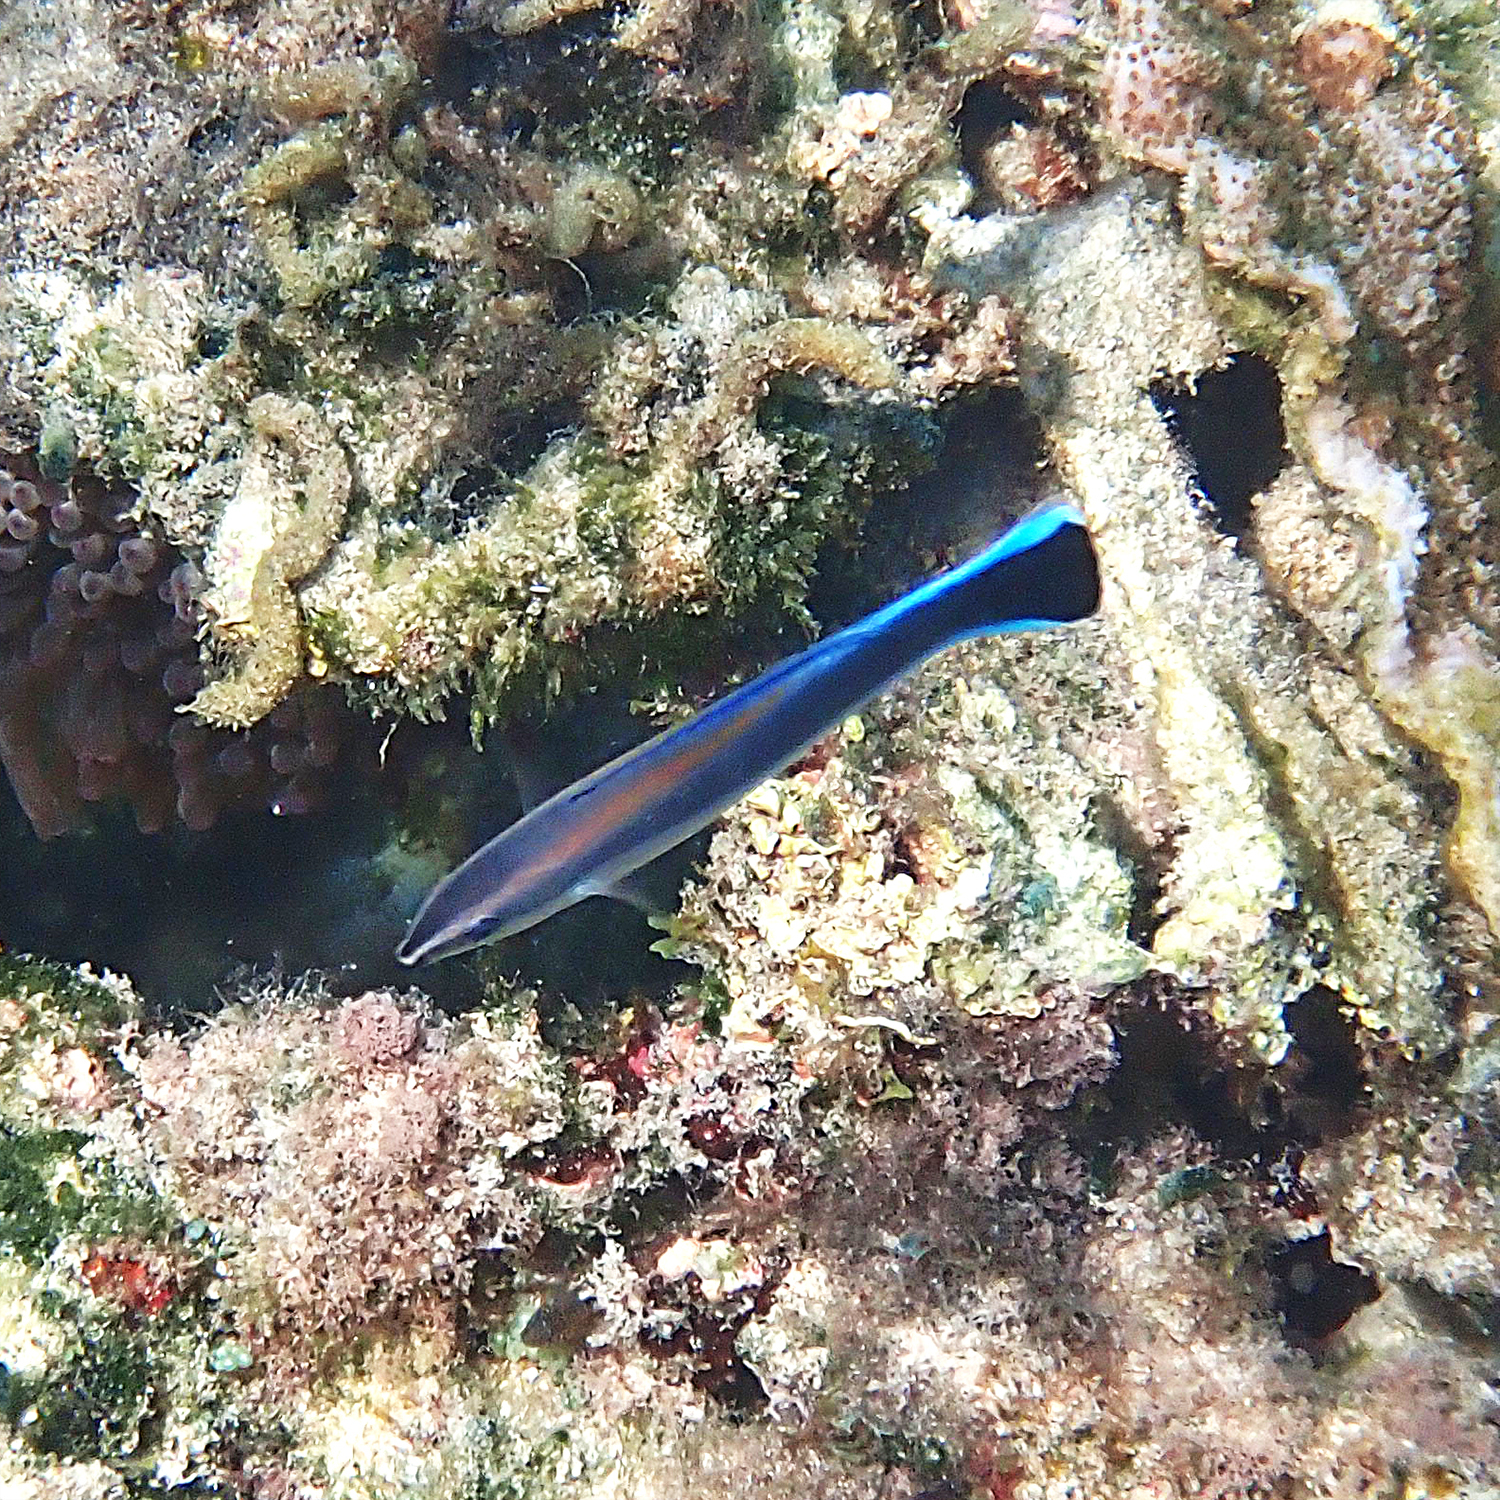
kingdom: Animalia
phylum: Chordata
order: Perciformes
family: Labridae
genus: Labroides
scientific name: Labroides dimidiatus
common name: Blue diesel wrasse
